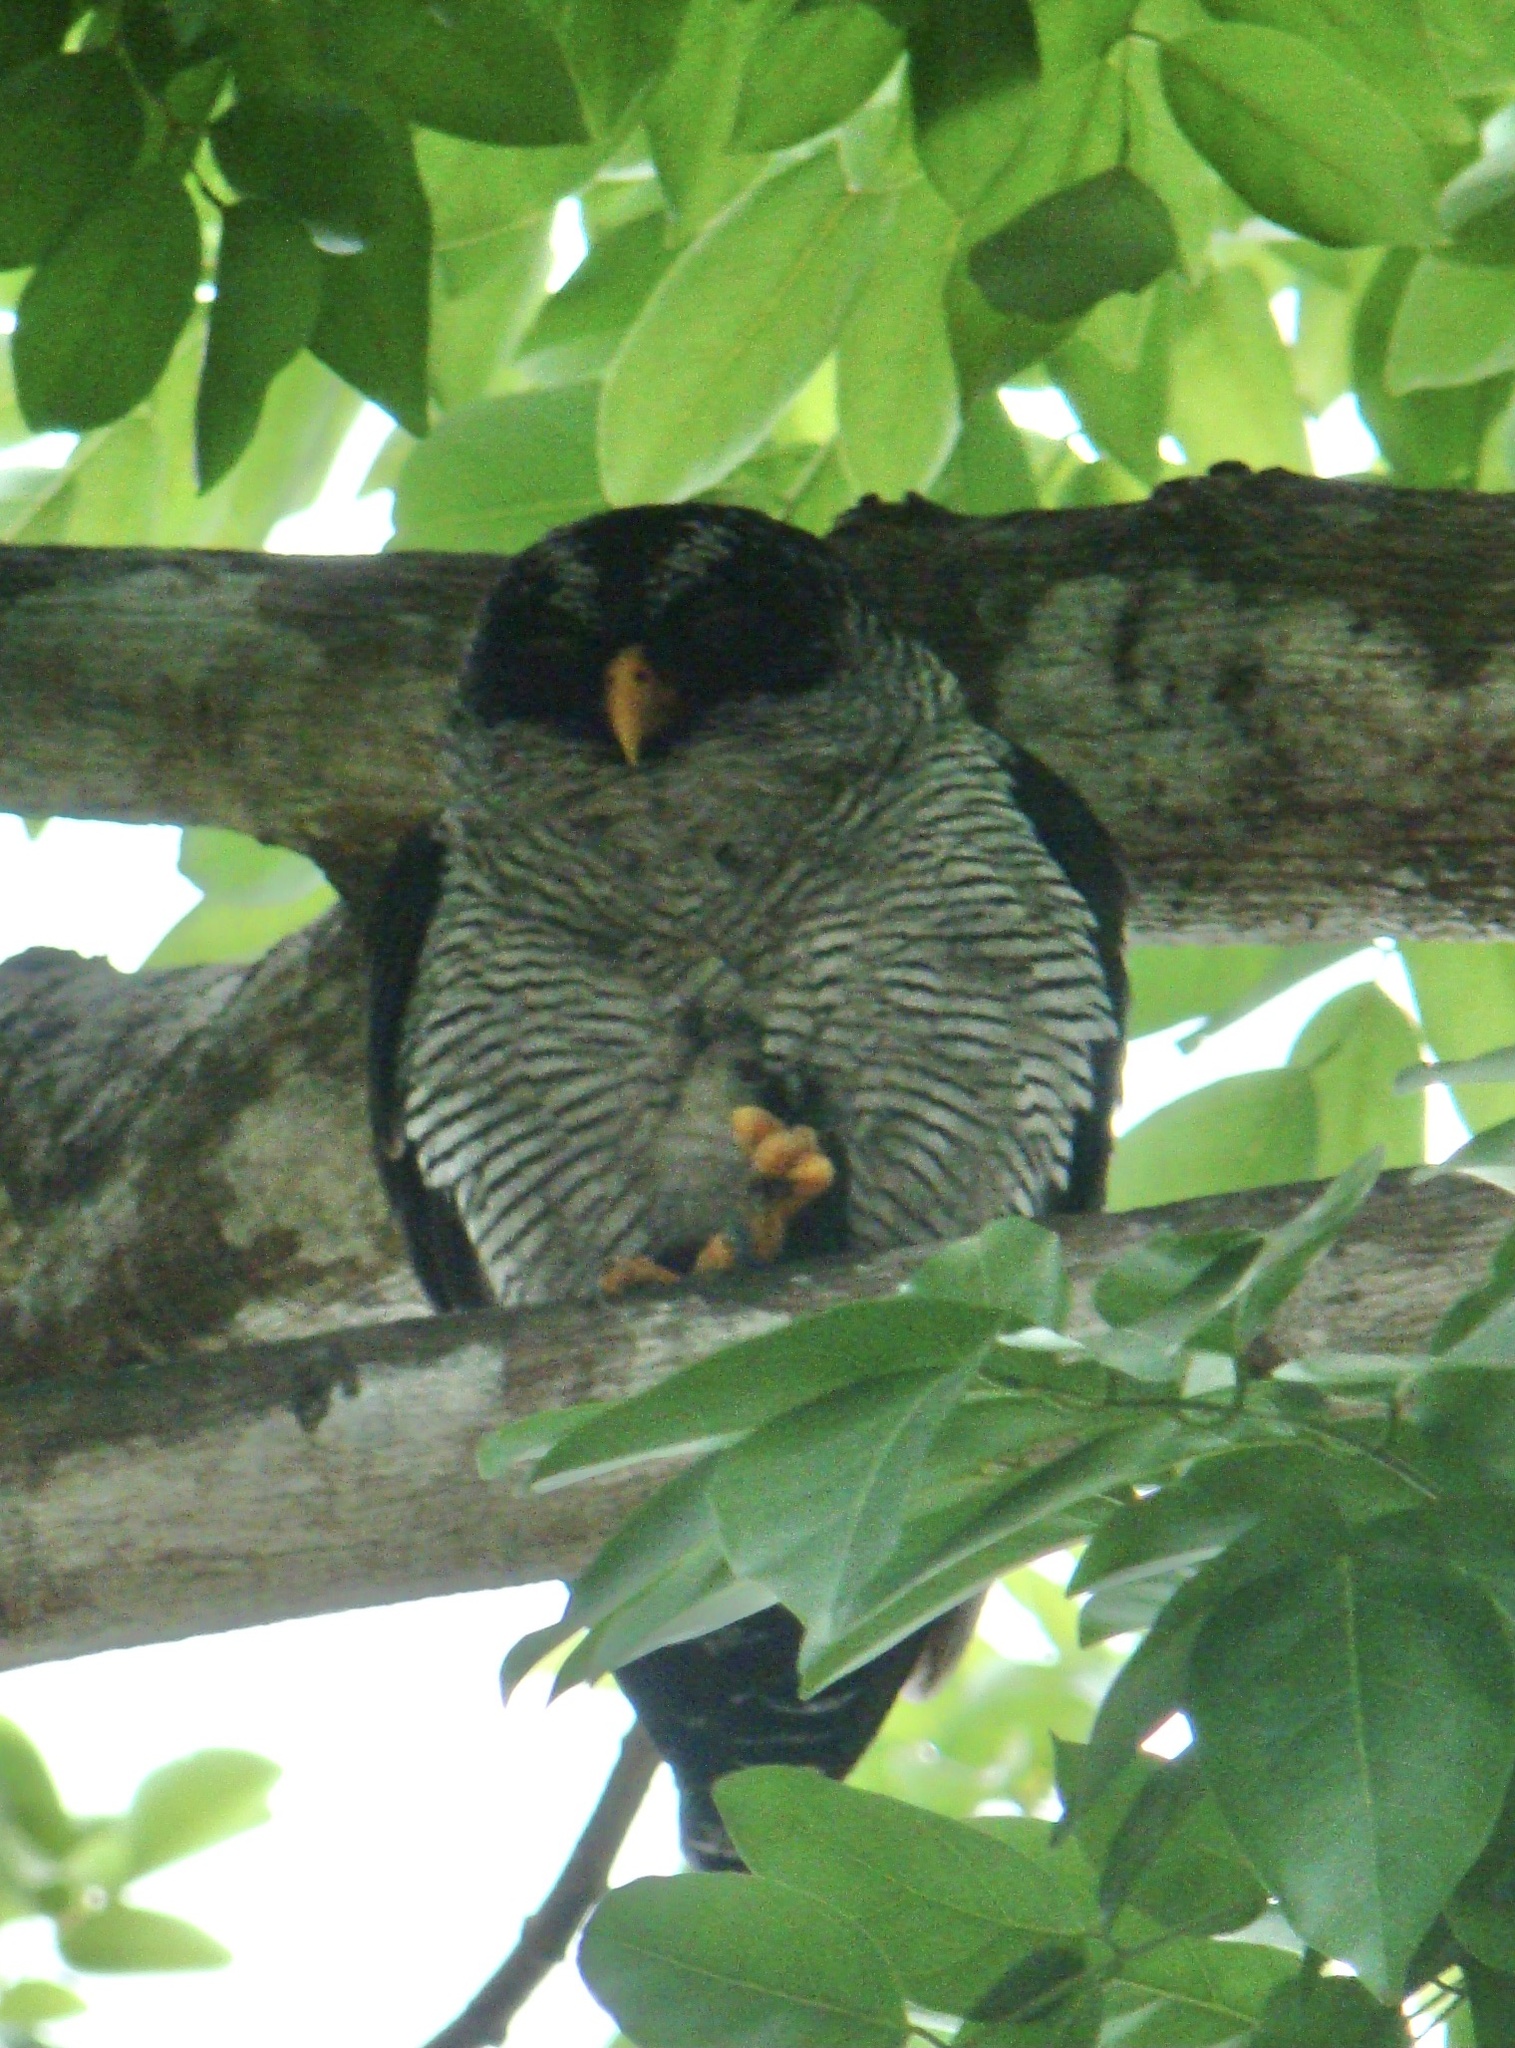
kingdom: Animalia
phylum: Chordata
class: Aves
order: Strigiformes
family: Strigidae
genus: Strix
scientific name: Strix nigrolineata
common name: Black-and-white owl
